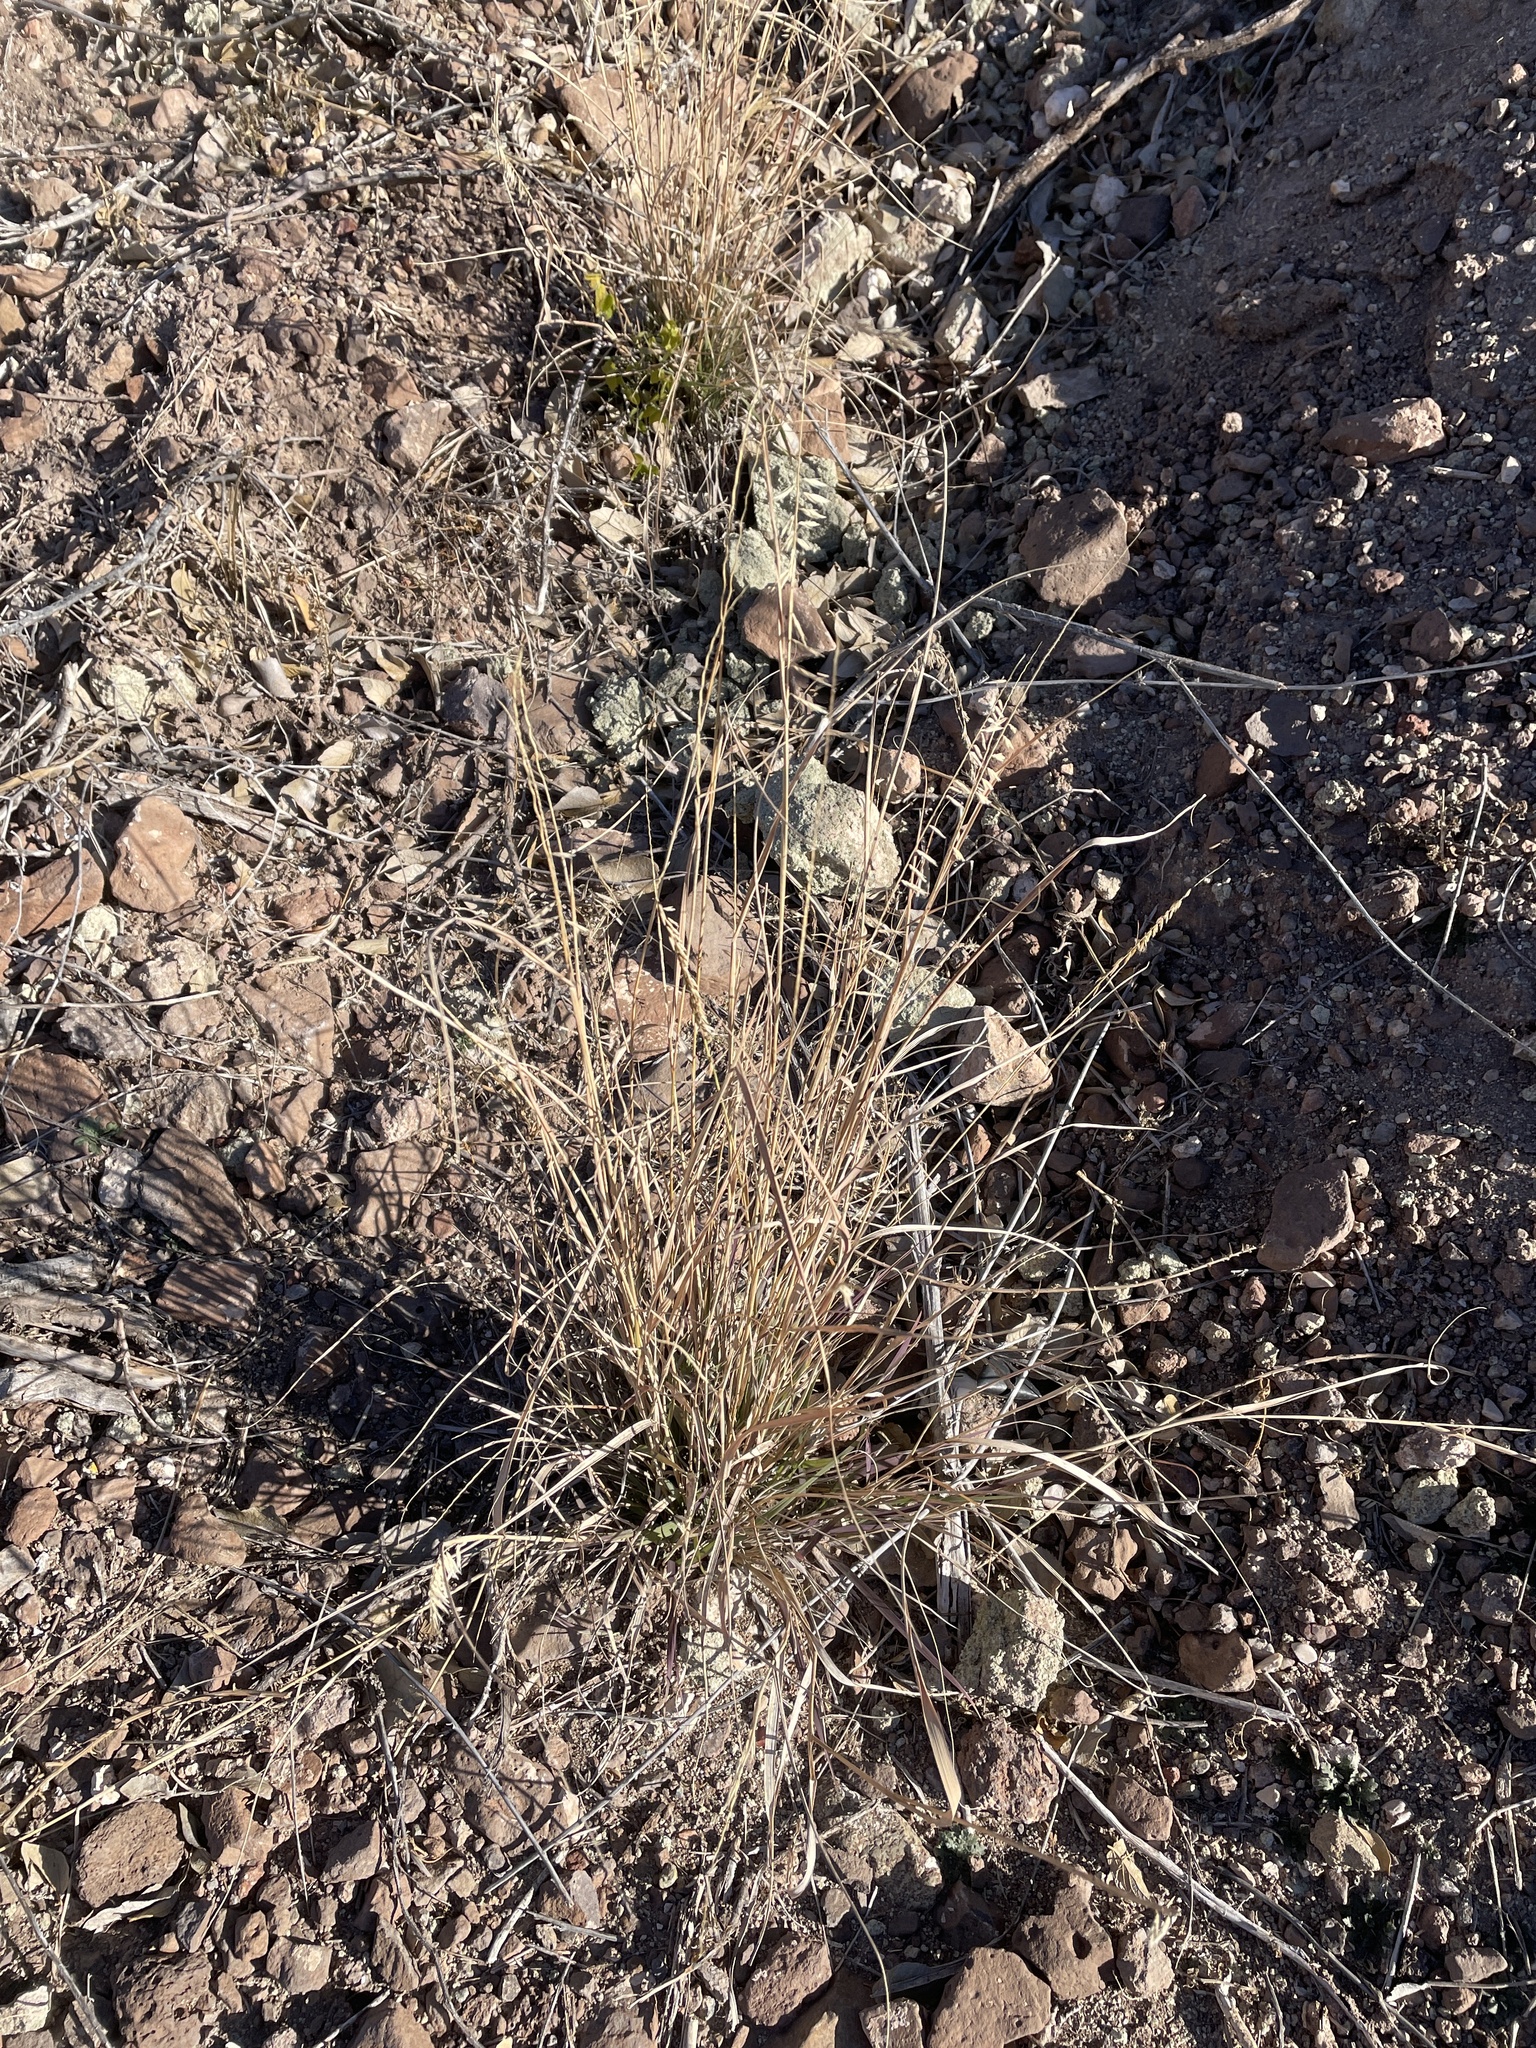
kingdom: Plantae
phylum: Tracheophyta
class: Liliopsida
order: Poales
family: Poaceae
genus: Bouteloua
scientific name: Bouteloua curtipendula
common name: Side-oats grama
